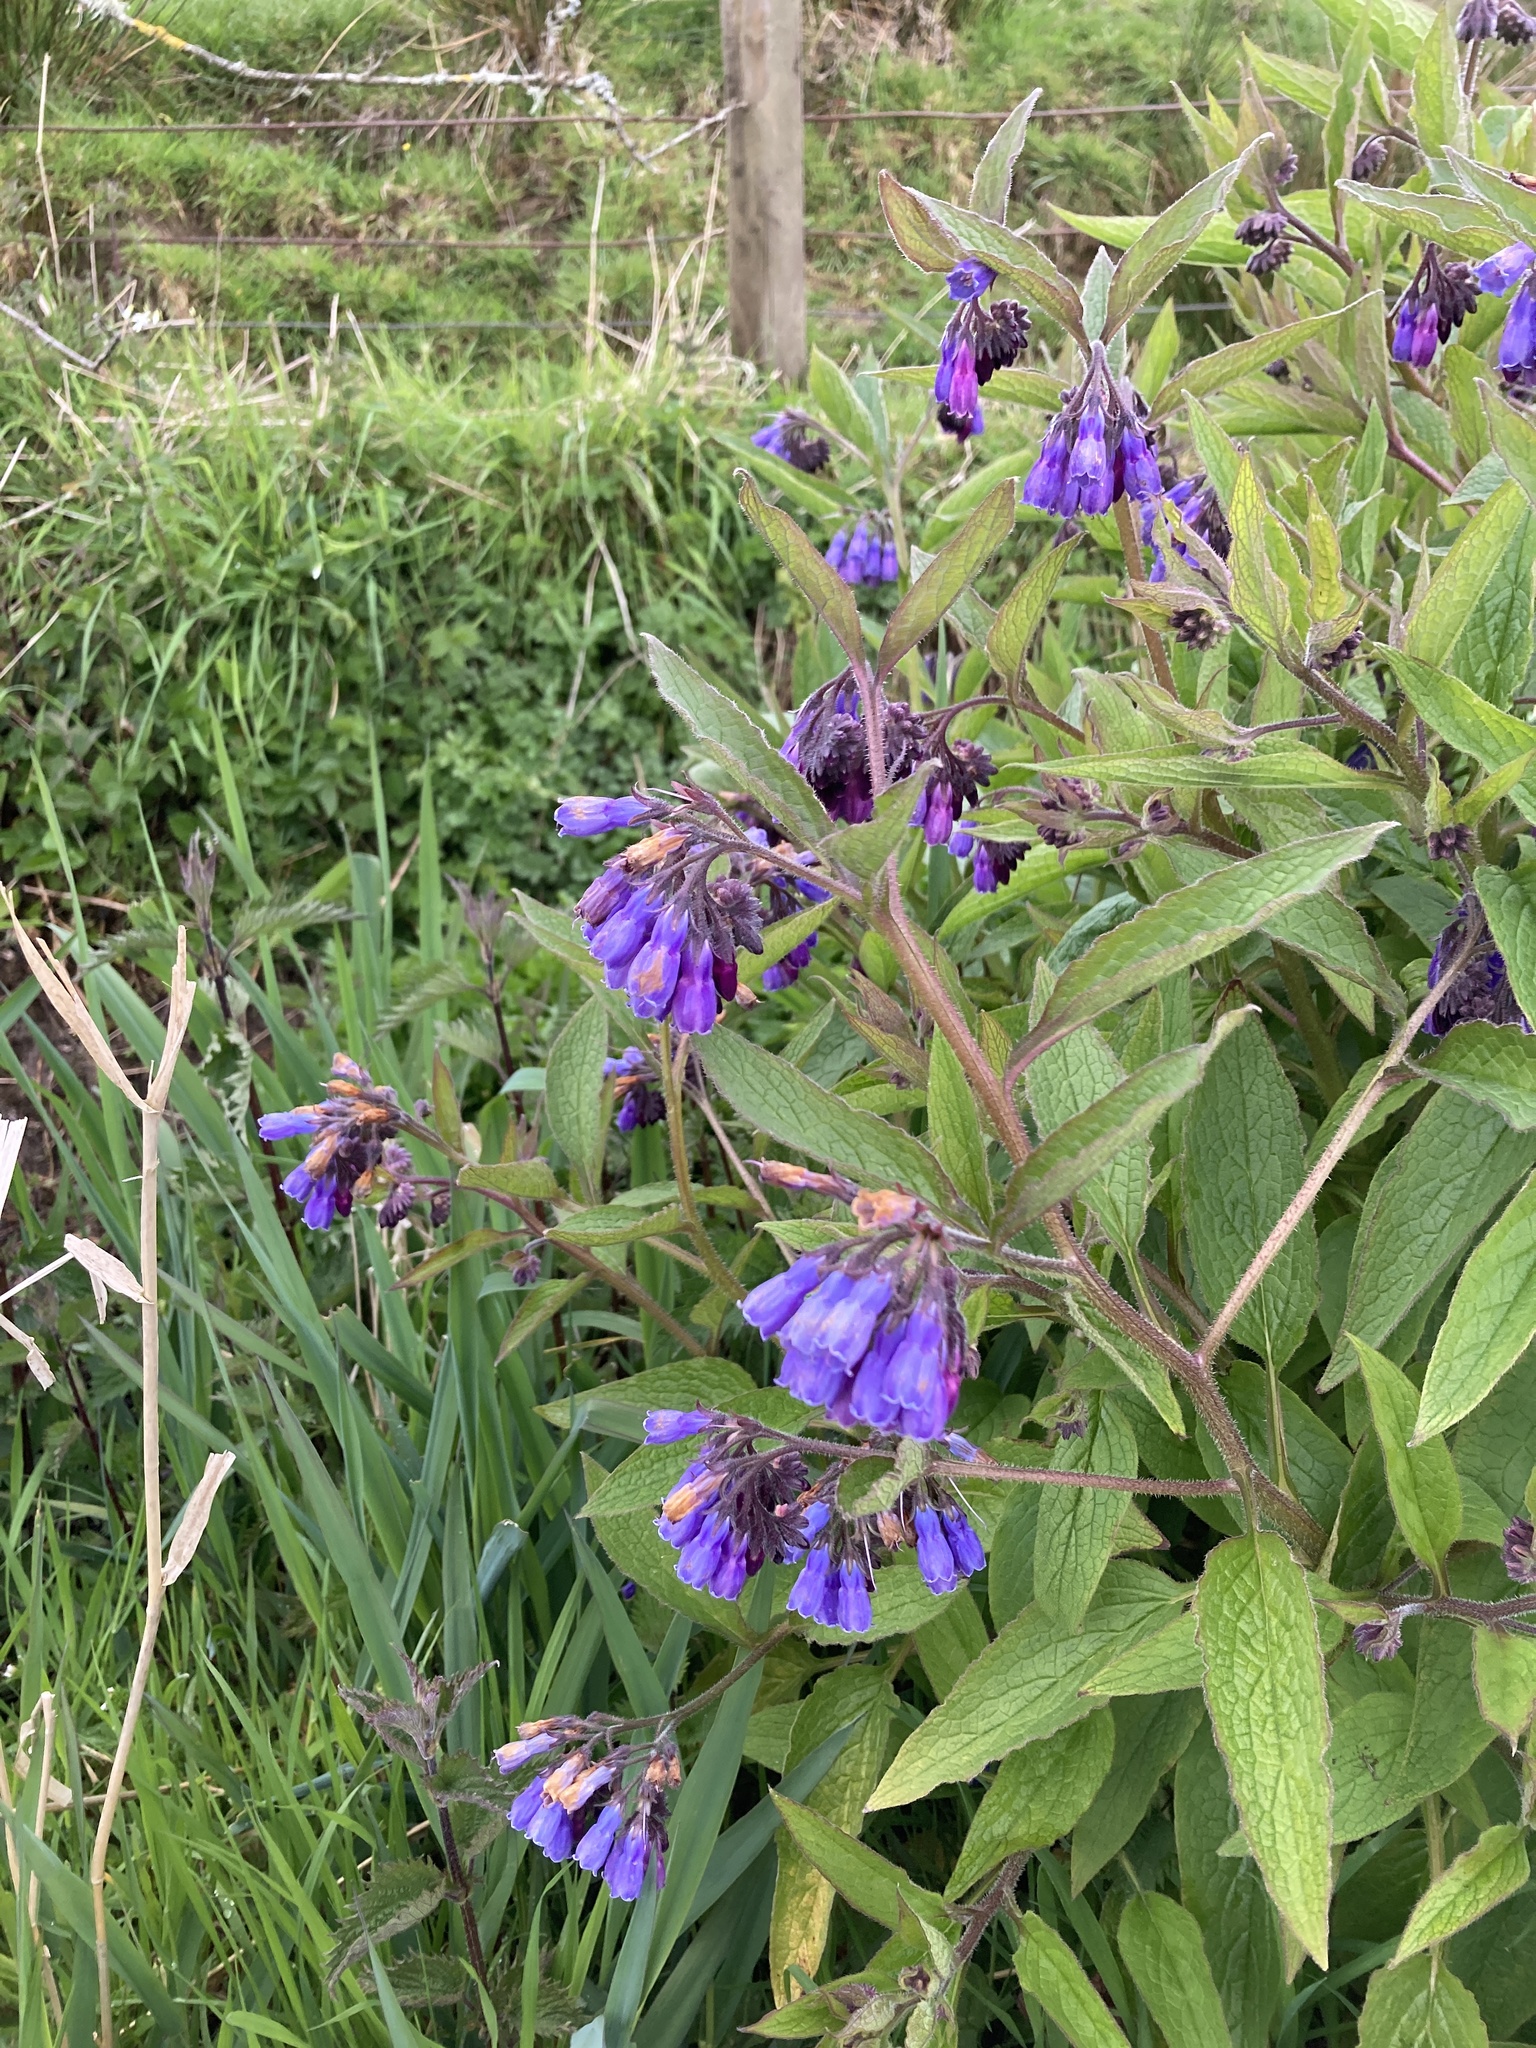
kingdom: Plantae
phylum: Tracheophyta
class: Magnoliopsida
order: Boraginales
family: Boraginaceae
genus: Symphytum
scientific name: Symphytum uplandicum
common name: Russian comfrey
